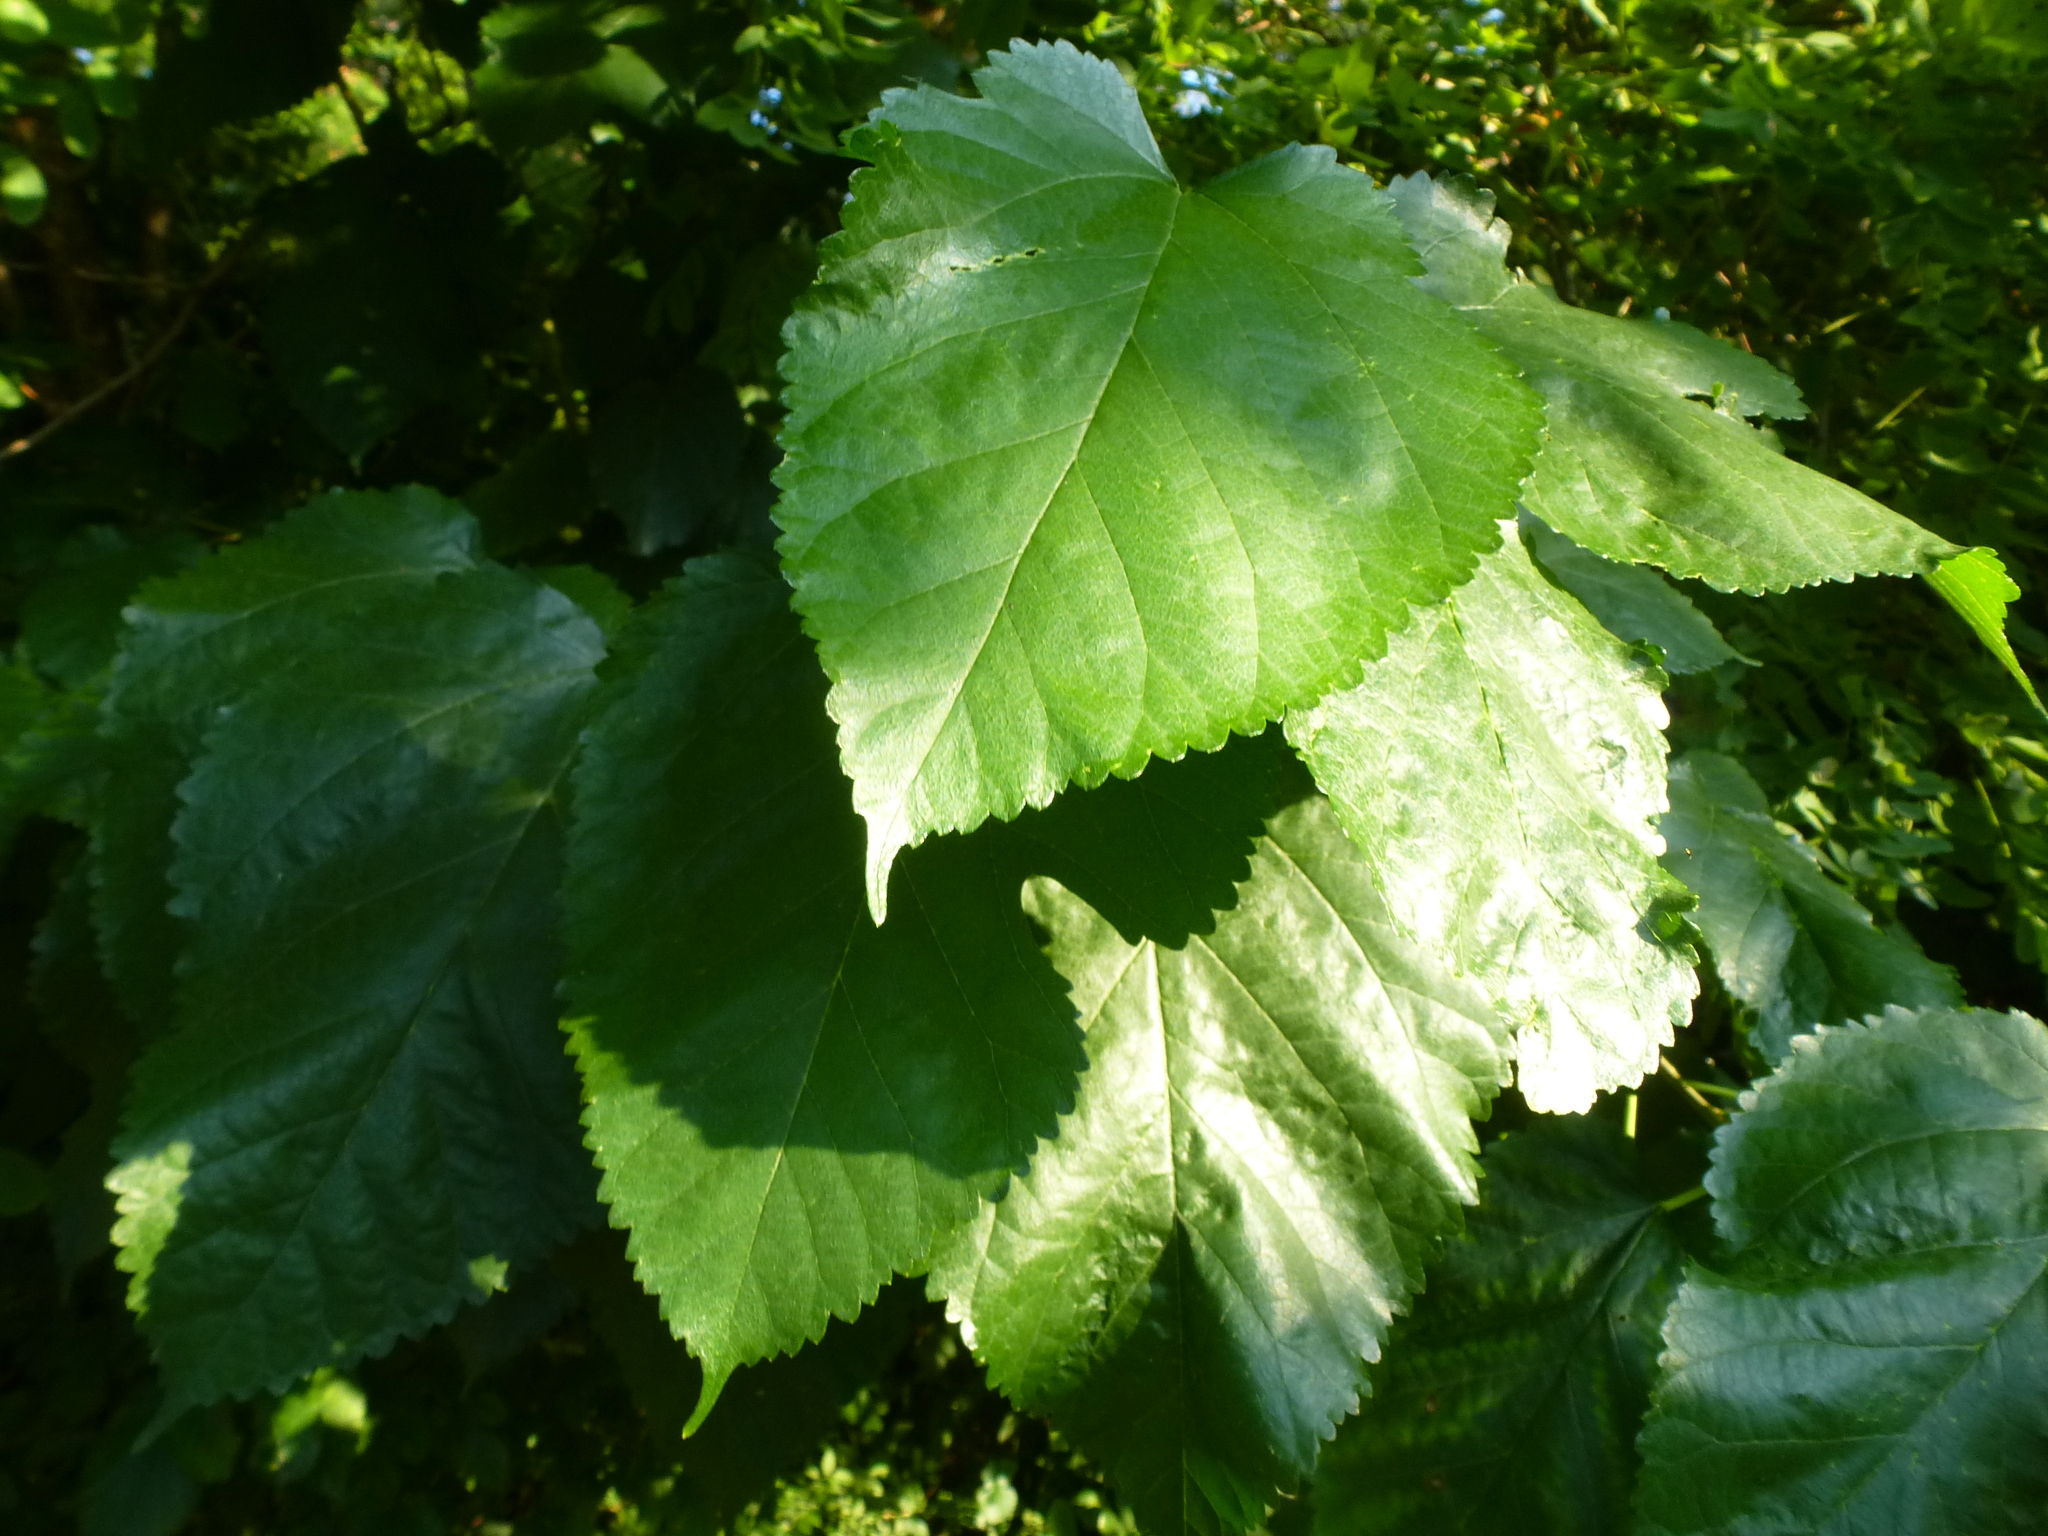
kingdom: Plantae
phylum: Tracheophyta
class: Magnoliopsida
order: Rosales
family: Moraceae
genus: Morus
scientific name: Morus alba
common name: White mulberry
